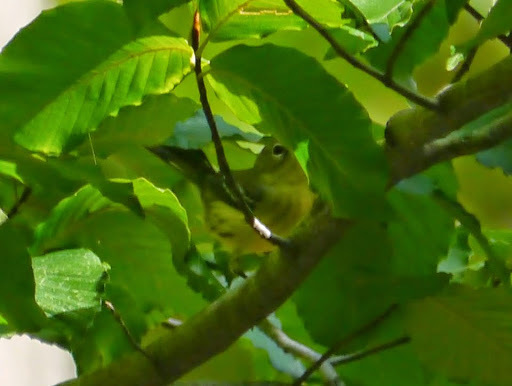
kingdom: Animalia
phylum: Chordata
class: Aves
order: Passeriformes
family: Parulidae
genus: Setophaga
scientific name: Setophaga magnolia
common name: Magnolia warbler
